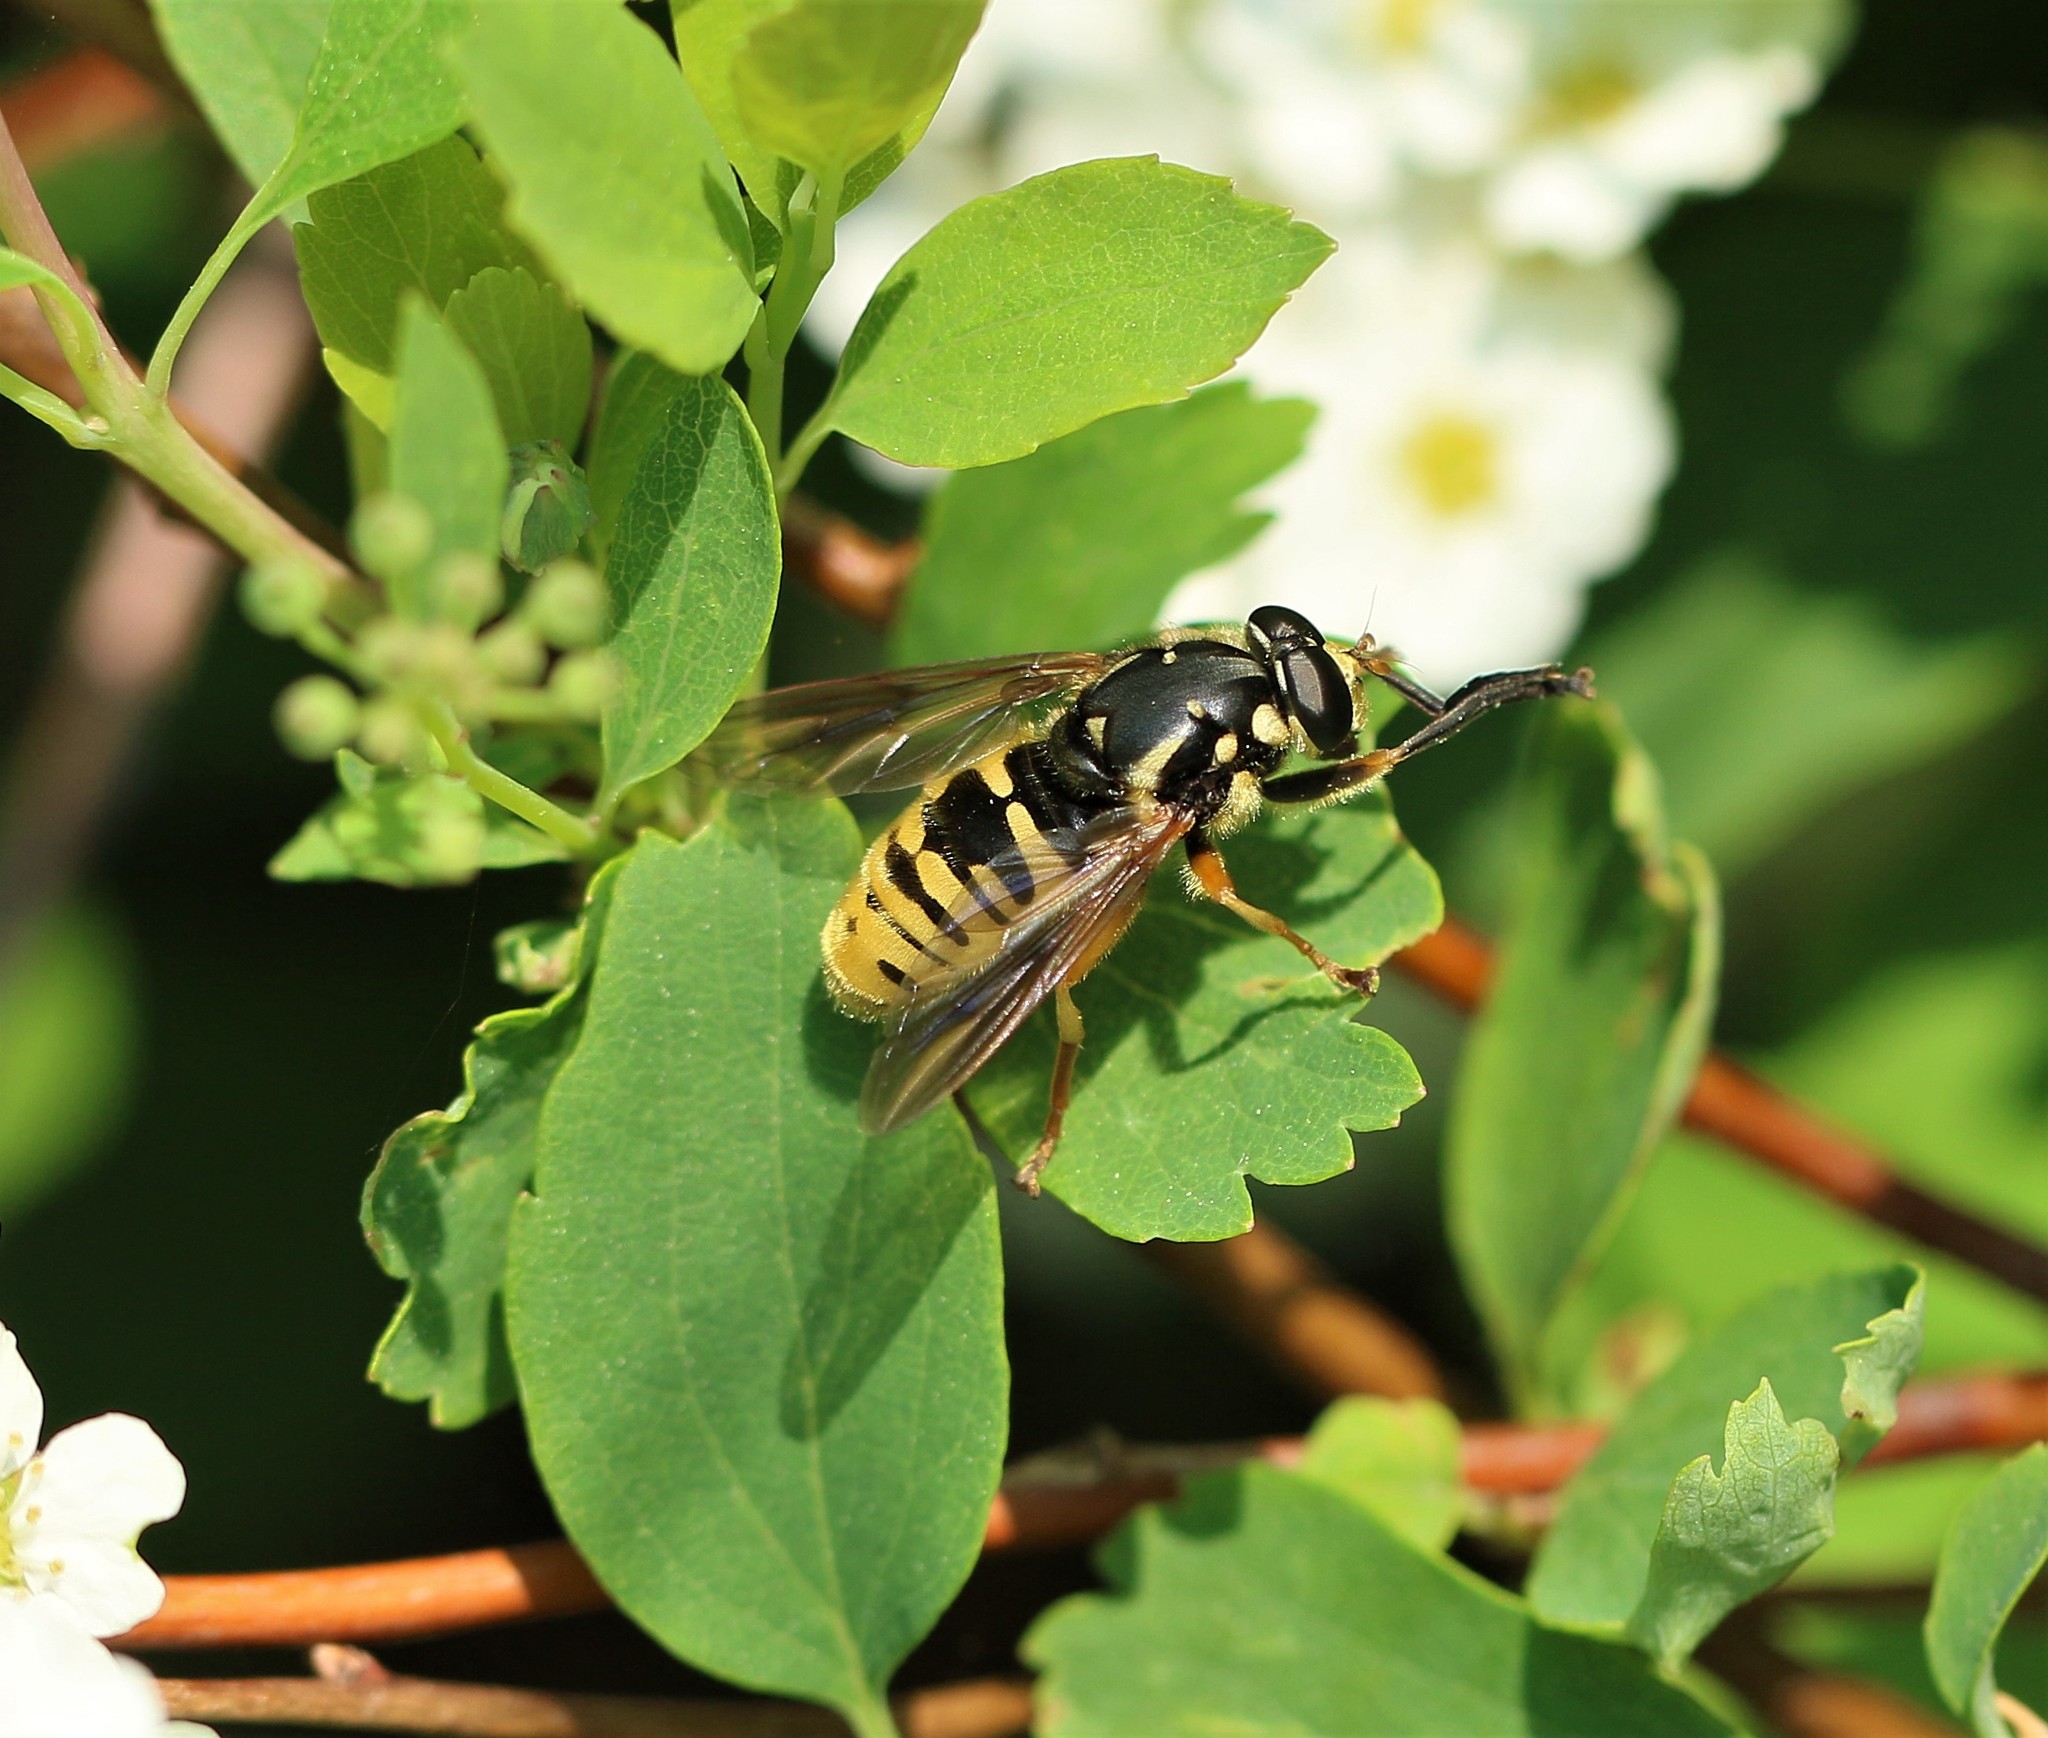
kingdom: Animalia
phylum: Arthropoda
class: Insecta
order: Diptera
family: Syrphidae
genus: Temnostoma
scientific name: Temnostoma alternans
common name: Wasp-like falsehorn
